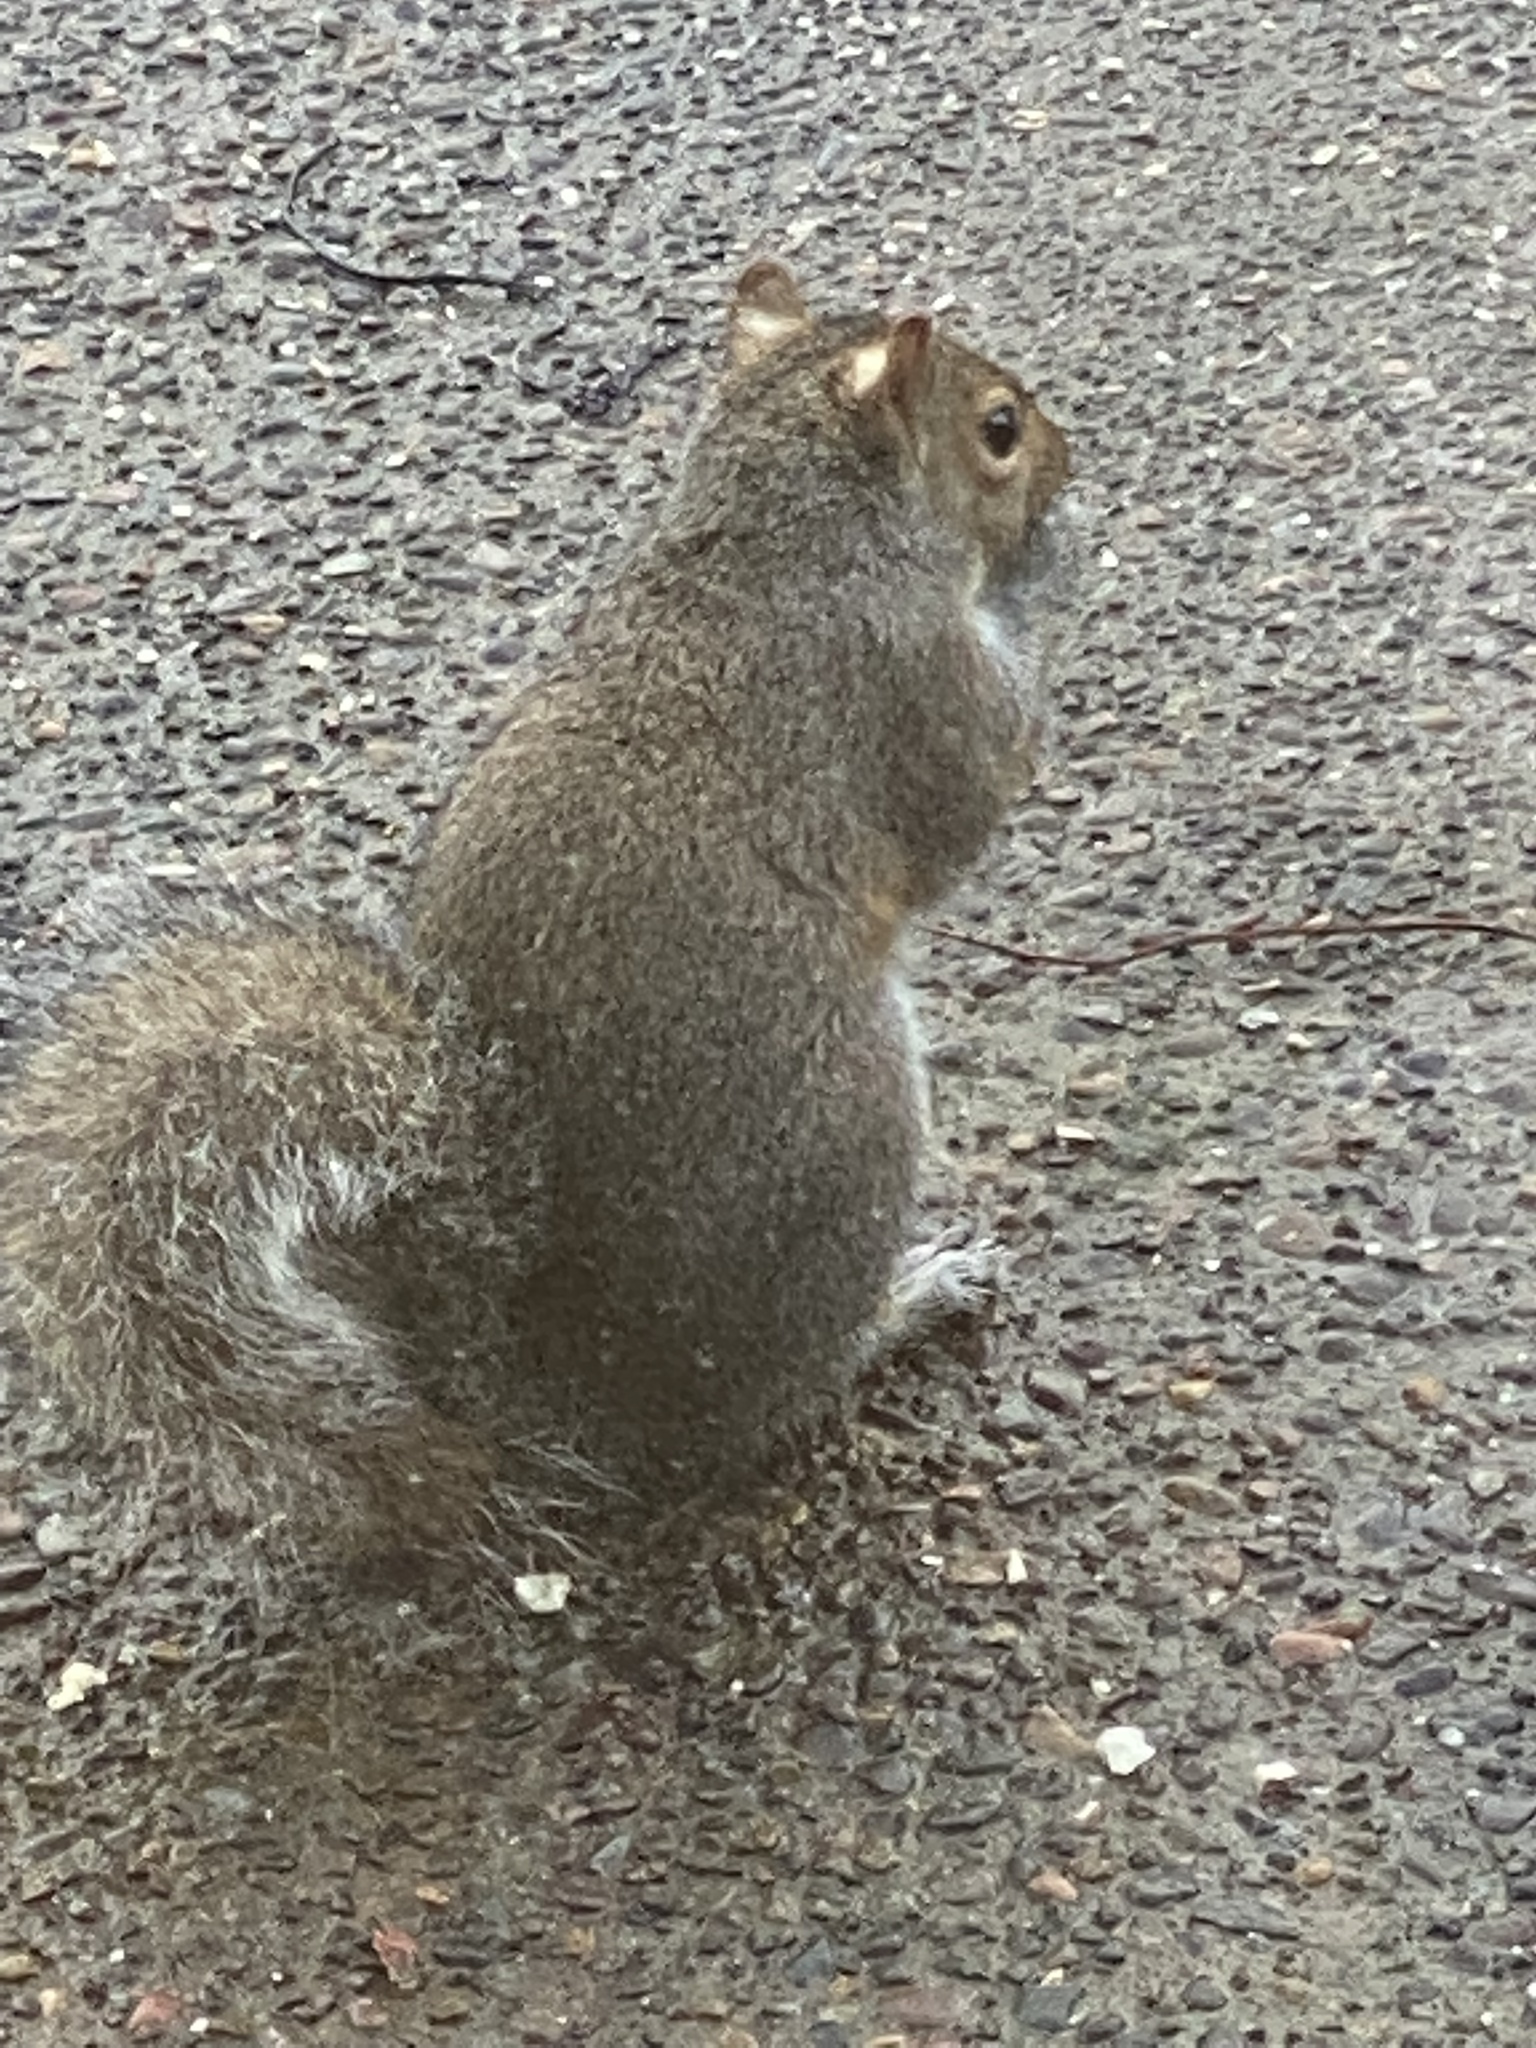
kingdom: Animalia
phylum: Chordata
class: Mammalia
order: Rodentia
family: Sciuridae
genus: Sciurus
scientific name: Sciurus carolinensis
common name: Eastern gray squirrel
